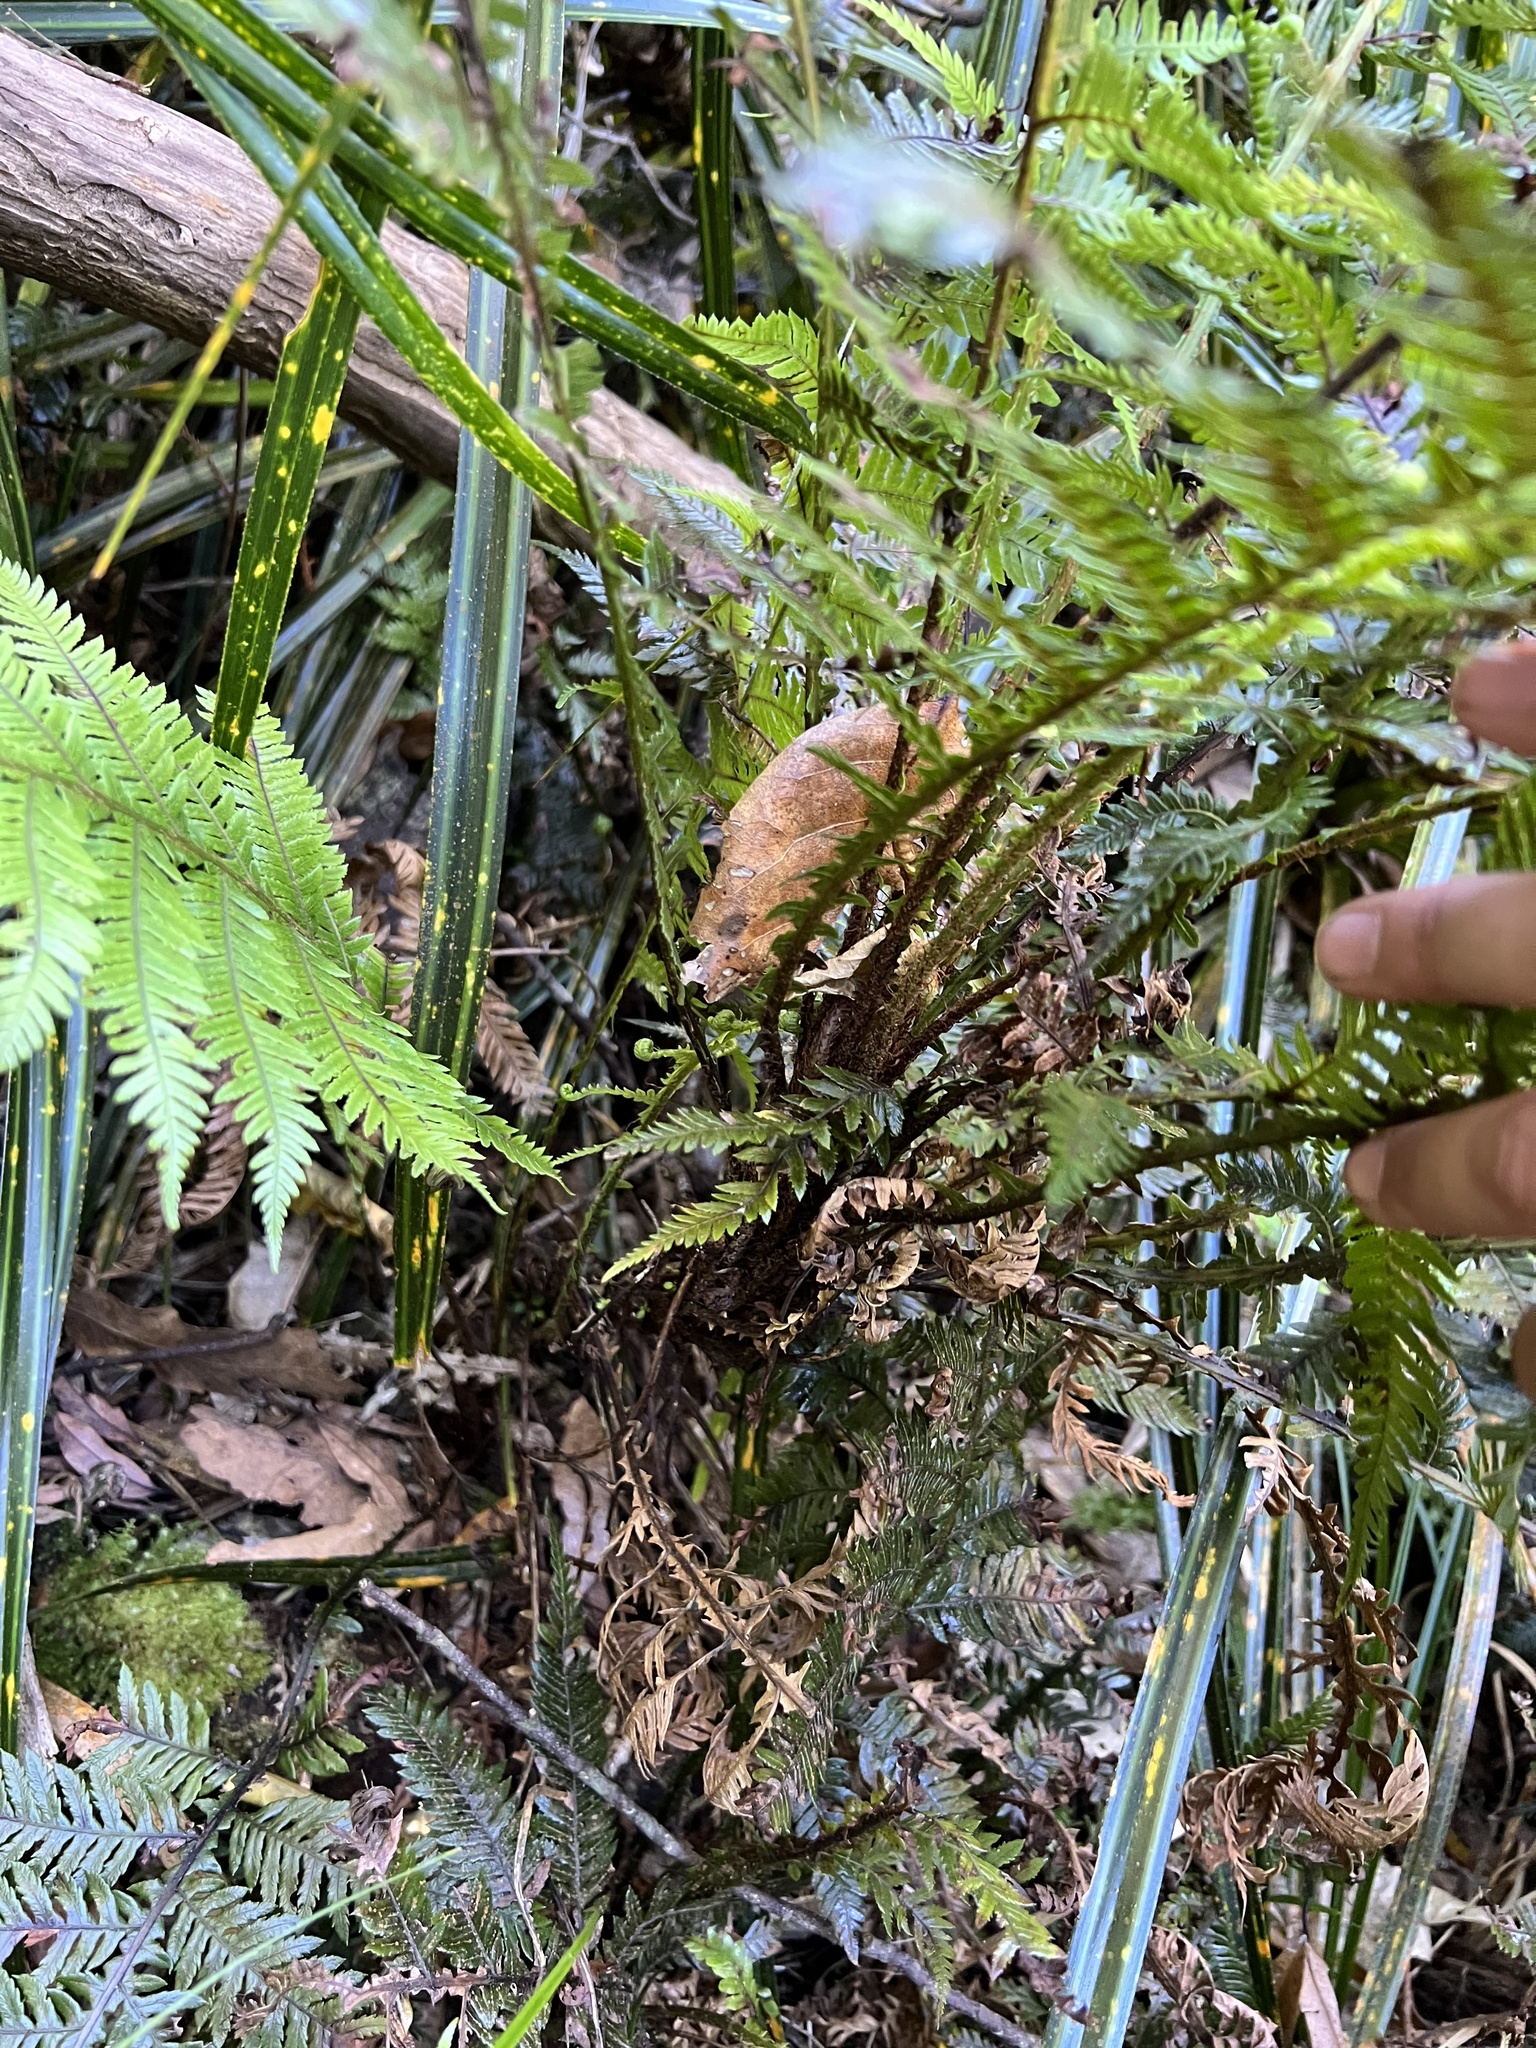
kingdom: Plantae
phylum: Tracheophyta
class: Polypodiopsida
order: Polypodiales
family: Blechnaceae
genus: Diploblechnum
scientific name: Diploblechnum fraseri
